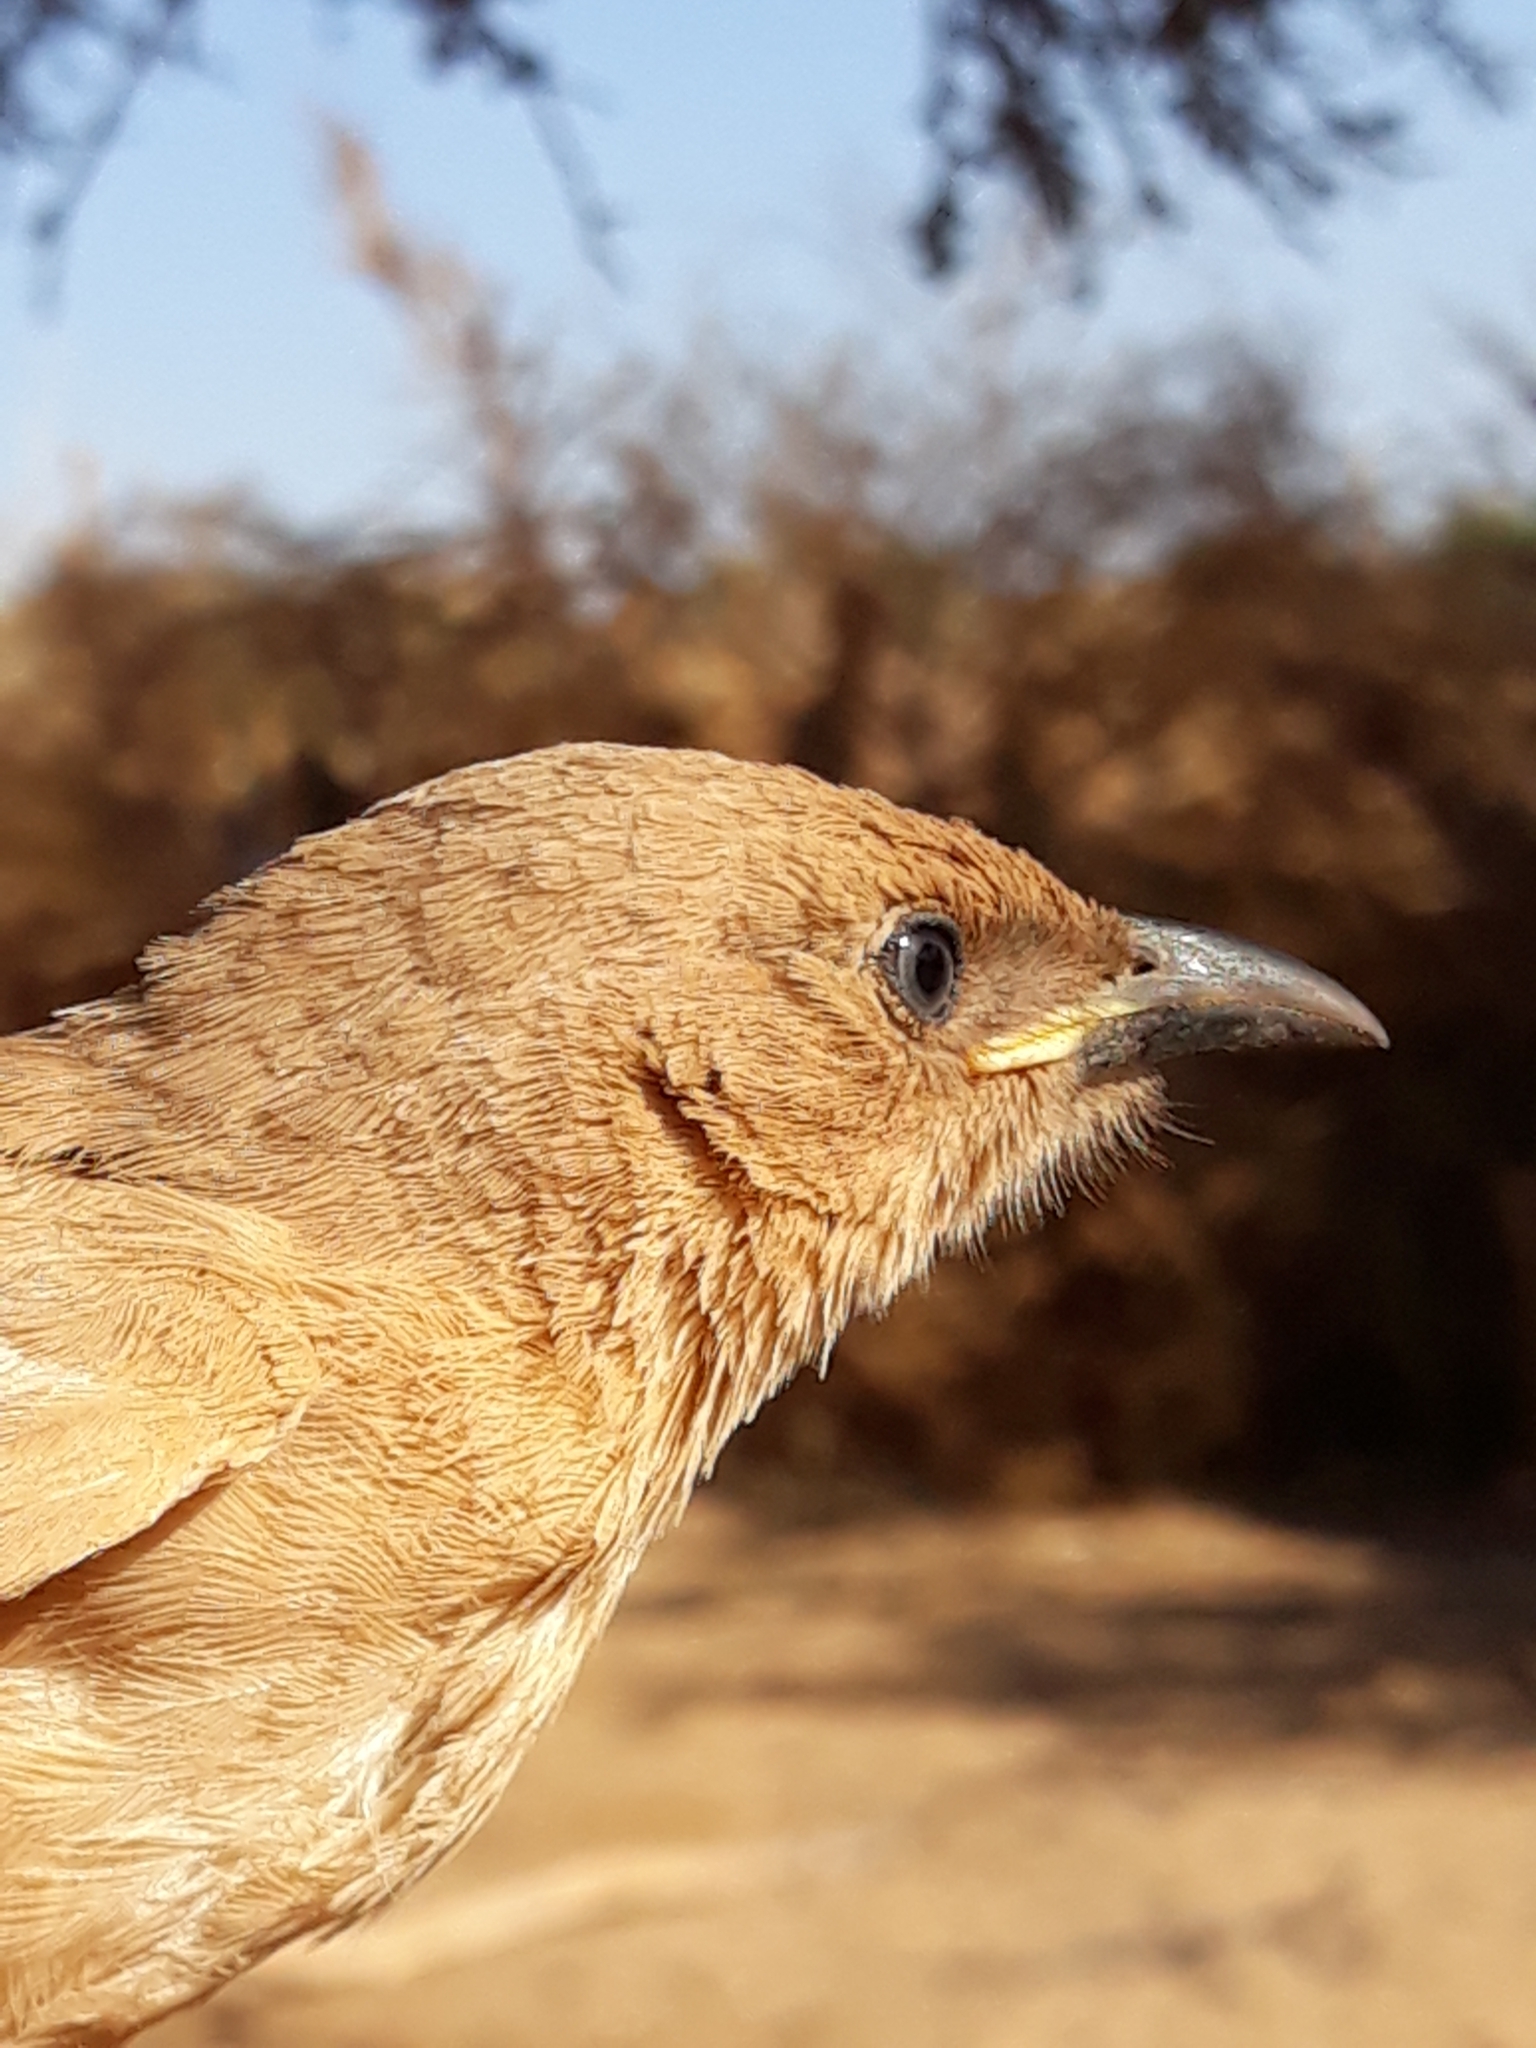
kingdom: Animalia
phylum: Chordata
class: Aves
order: Passeriformes
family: Leiothrichidae
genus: Turdoides
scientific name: Turdoides fulva
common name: Fulvous babbler
